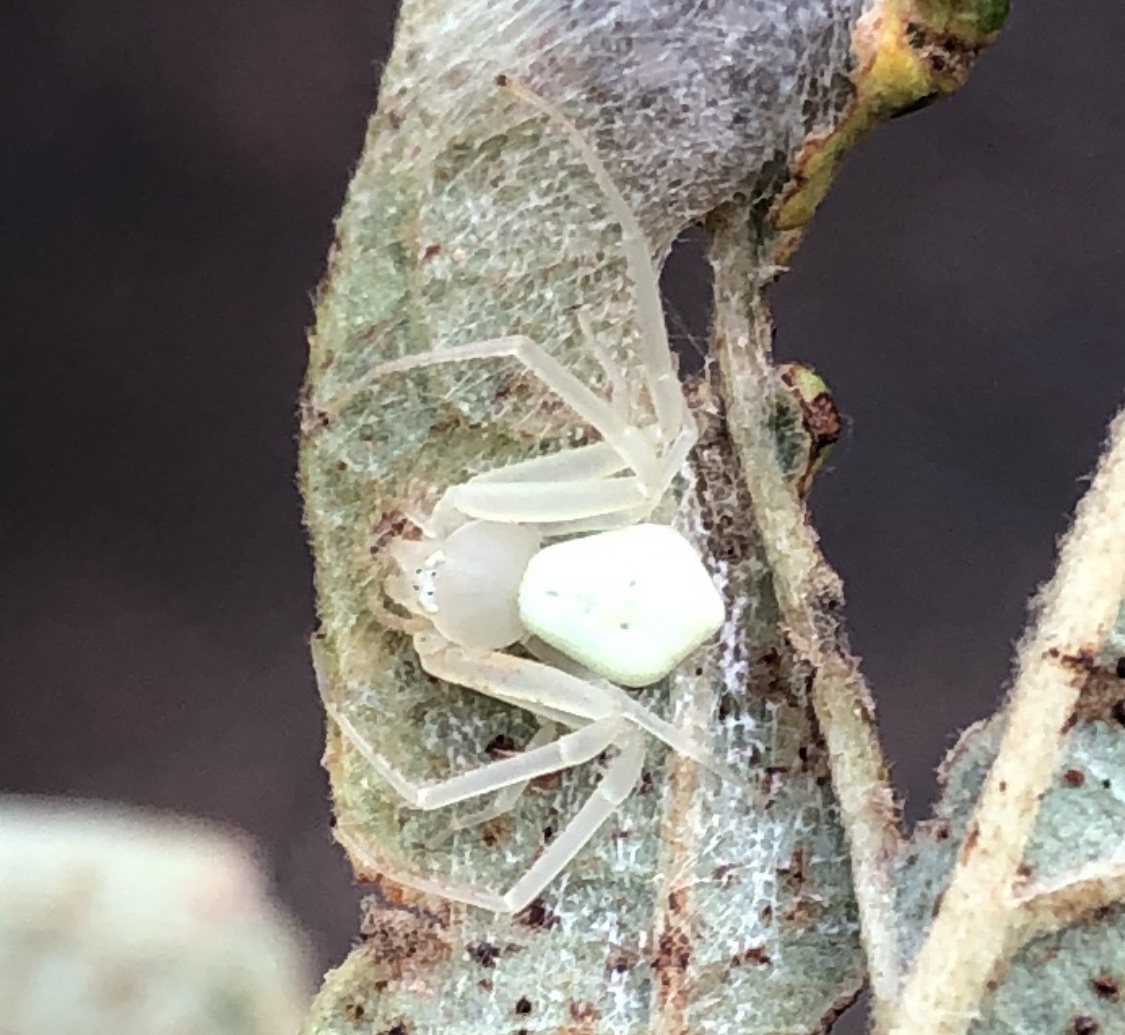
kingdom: Animalia
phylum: Arthropoda
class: Arachnida
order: Araneae
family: Thomisidae
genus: Misumessus
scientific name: Misumessus oblongus
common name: American green crab spider
